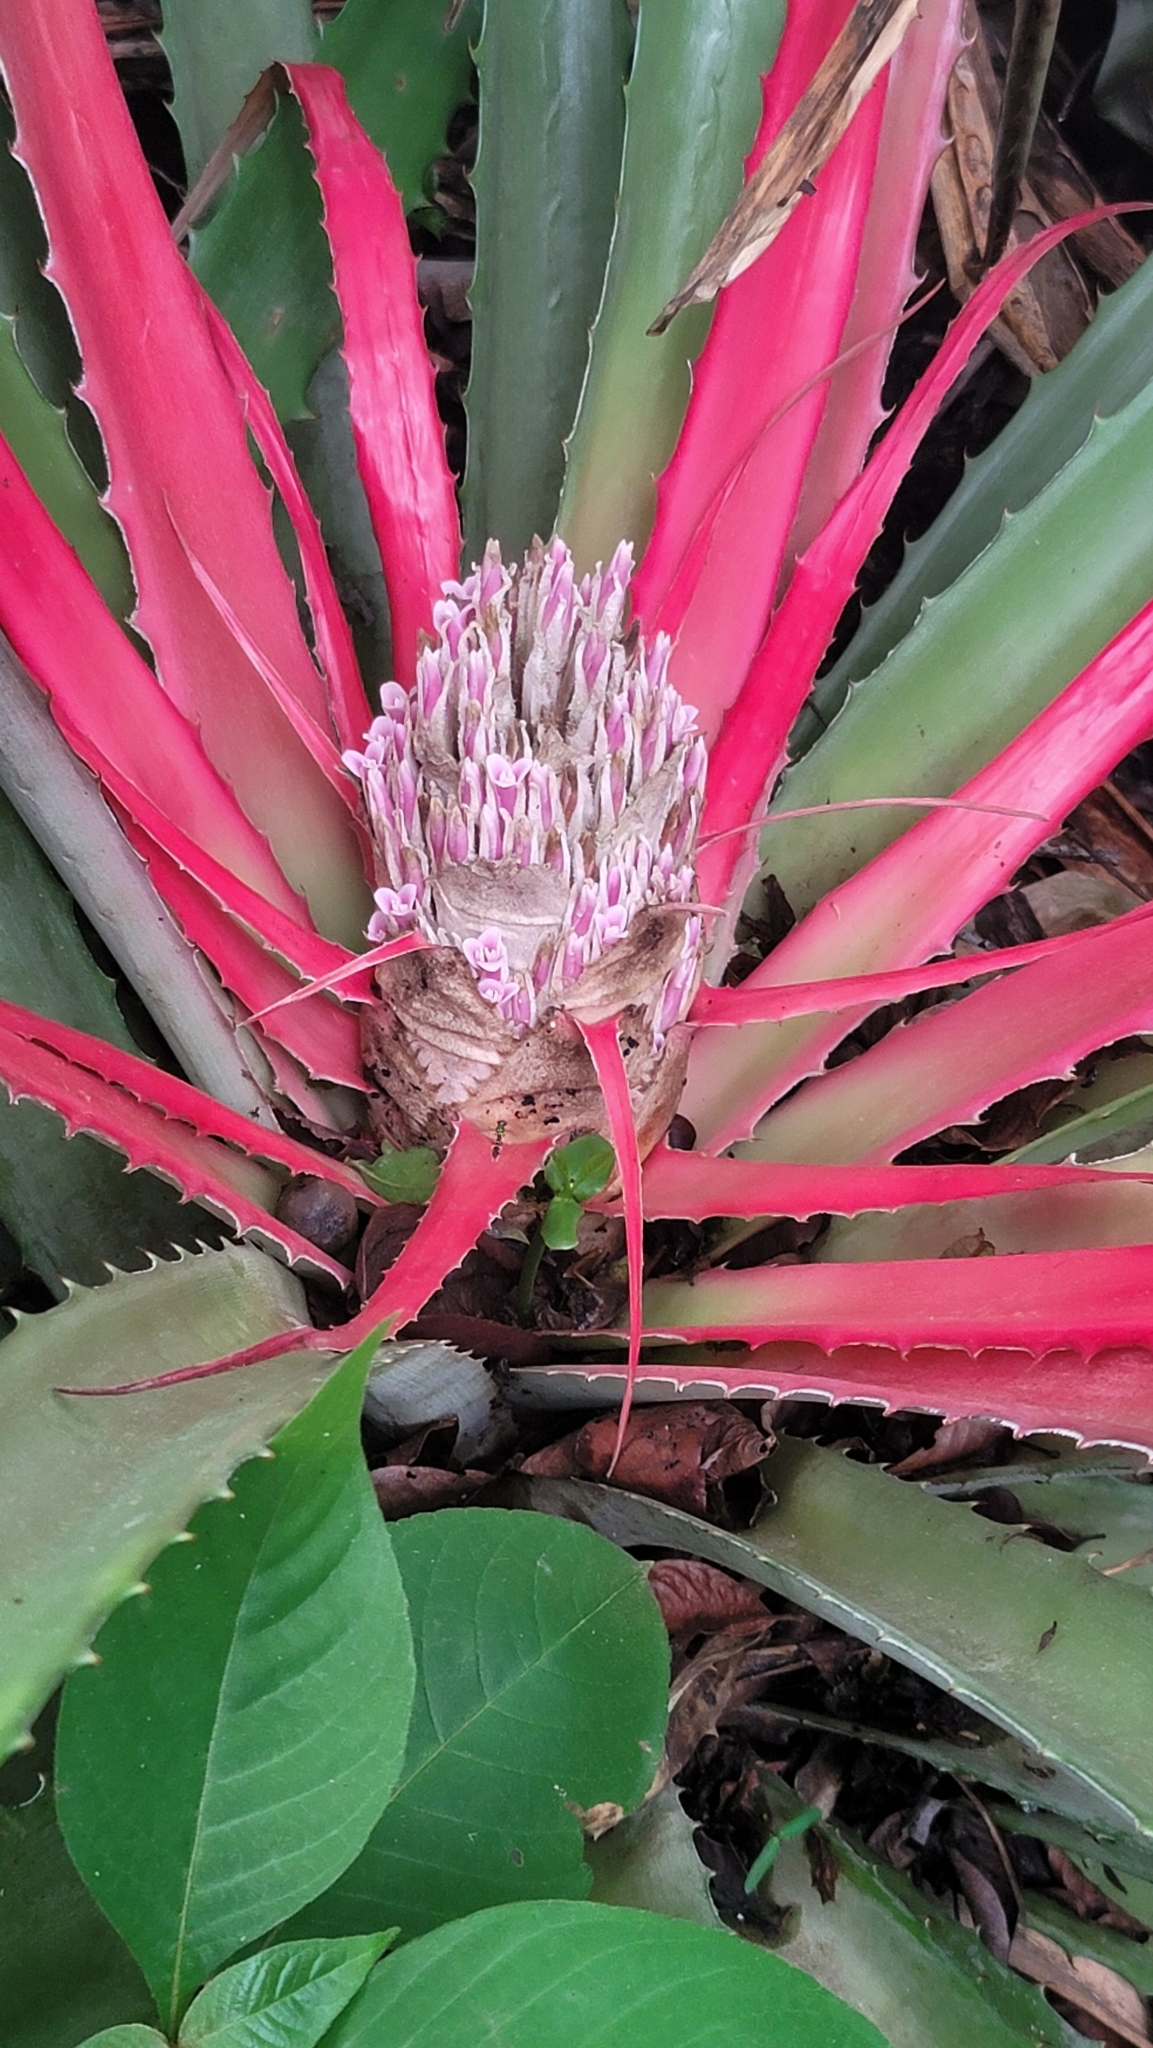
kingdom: Plantae
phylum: Tracheophyta
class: Liliopsida
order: Poales
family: Bromeliaceae
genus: Bromelia
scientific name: Bromelia pinguin
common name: Pinguin
